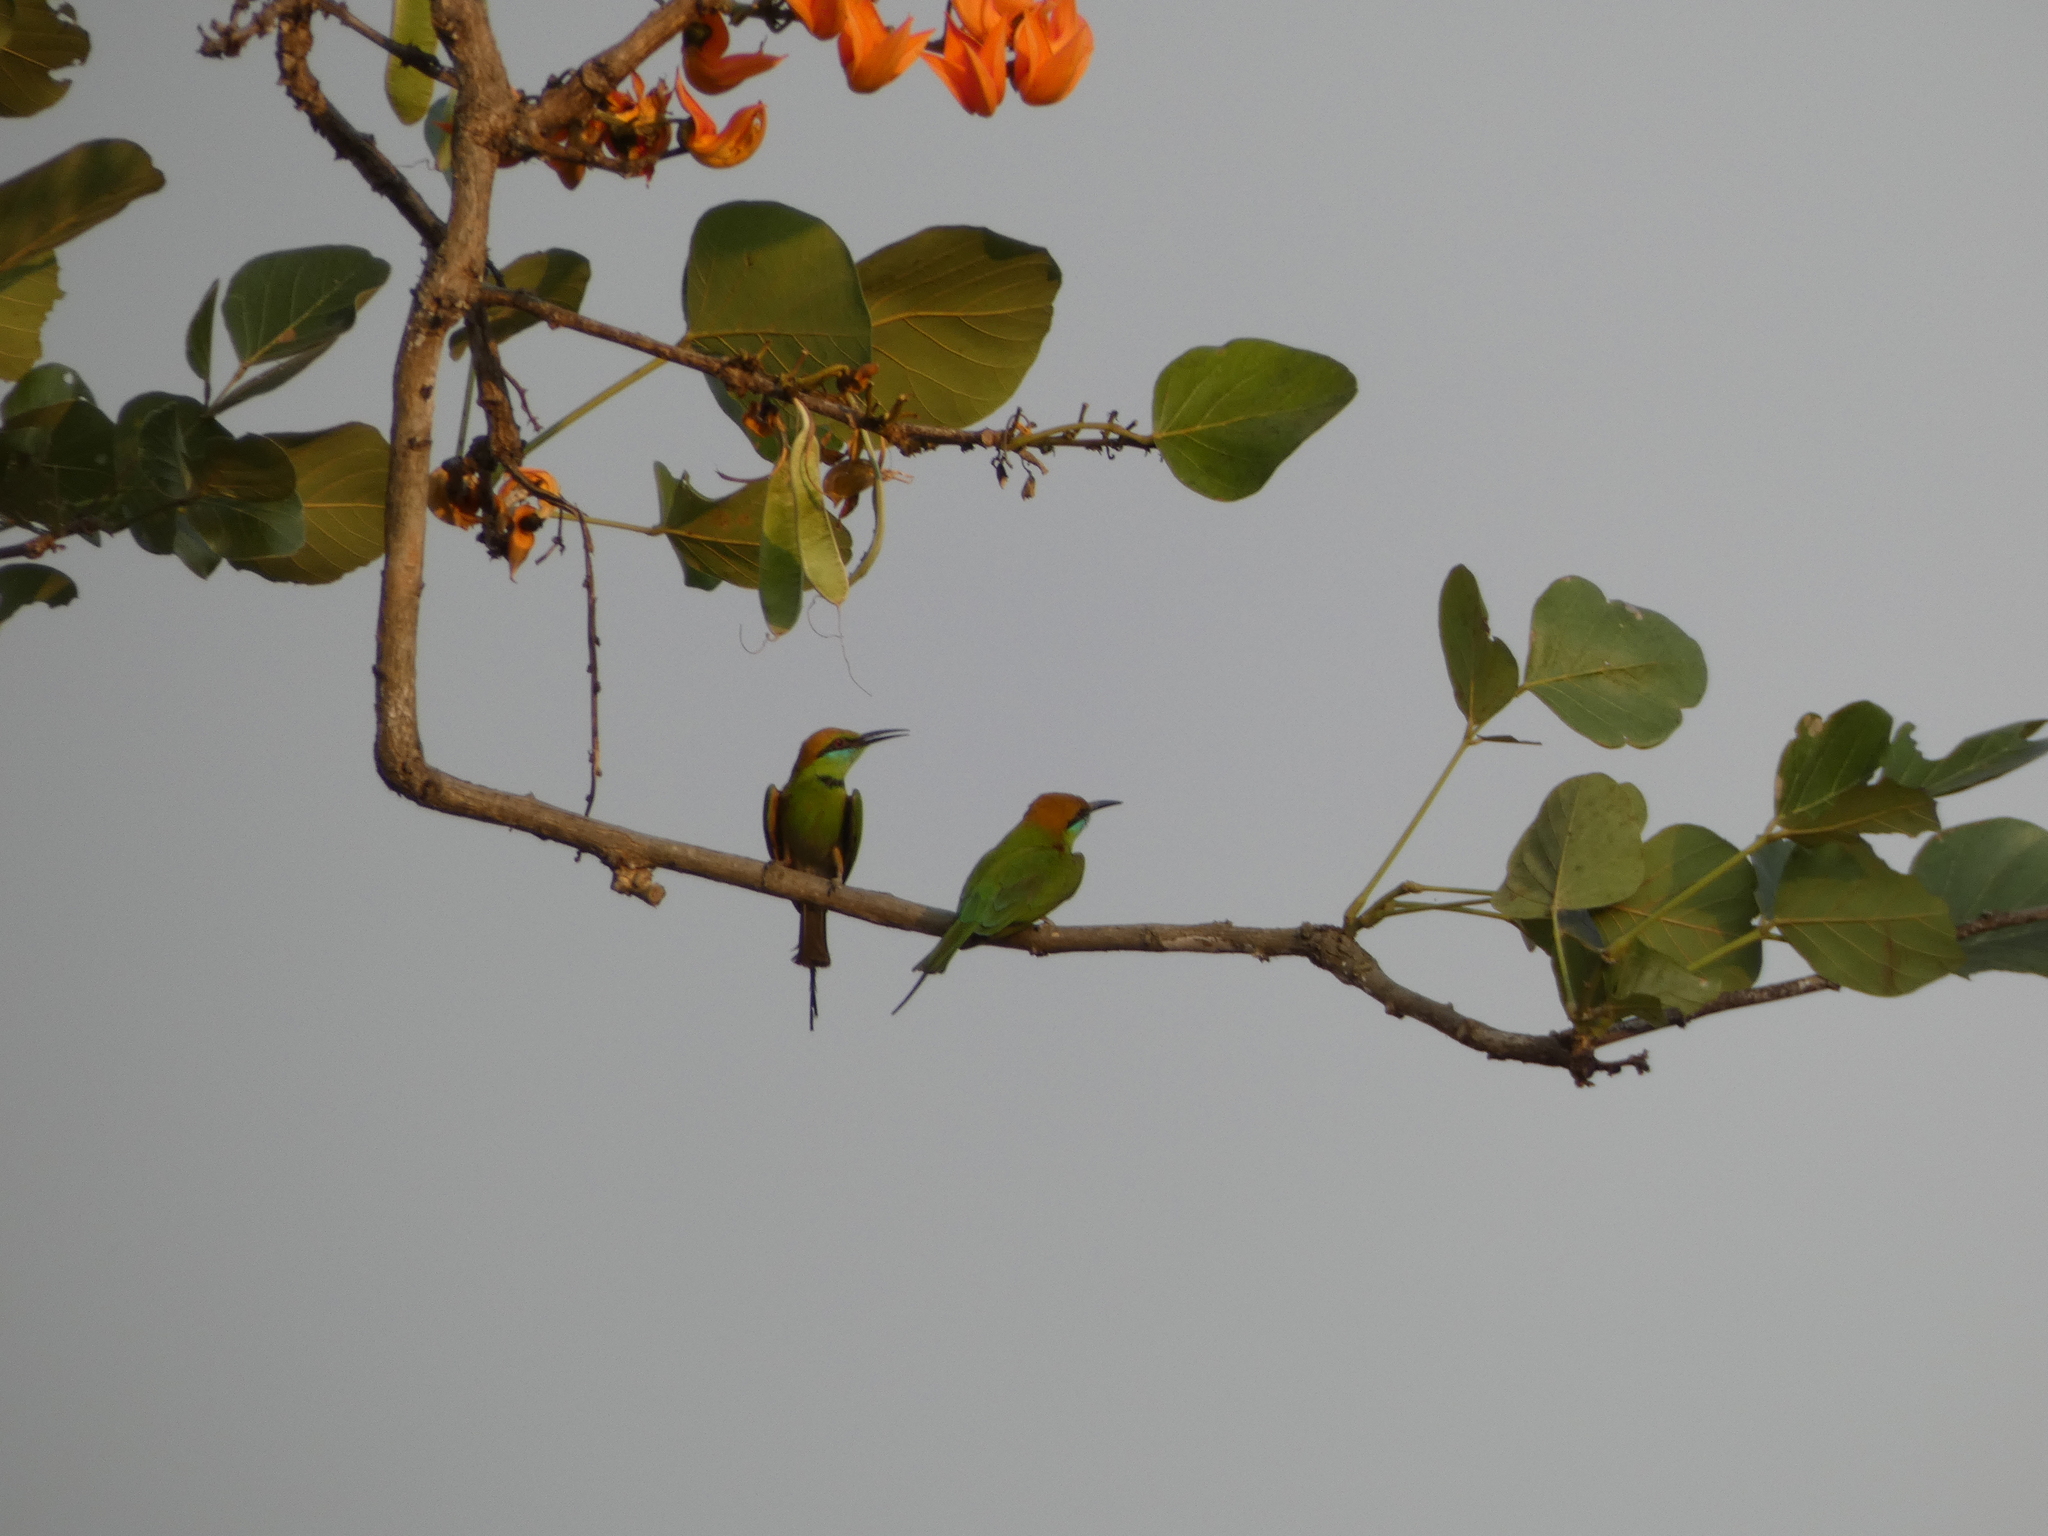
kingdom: Animalia
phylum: Chordata
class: Aves
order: Coraciiformes
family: Meropidae
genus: Merops
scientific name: Merops orientalis
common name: Green bee-eater
